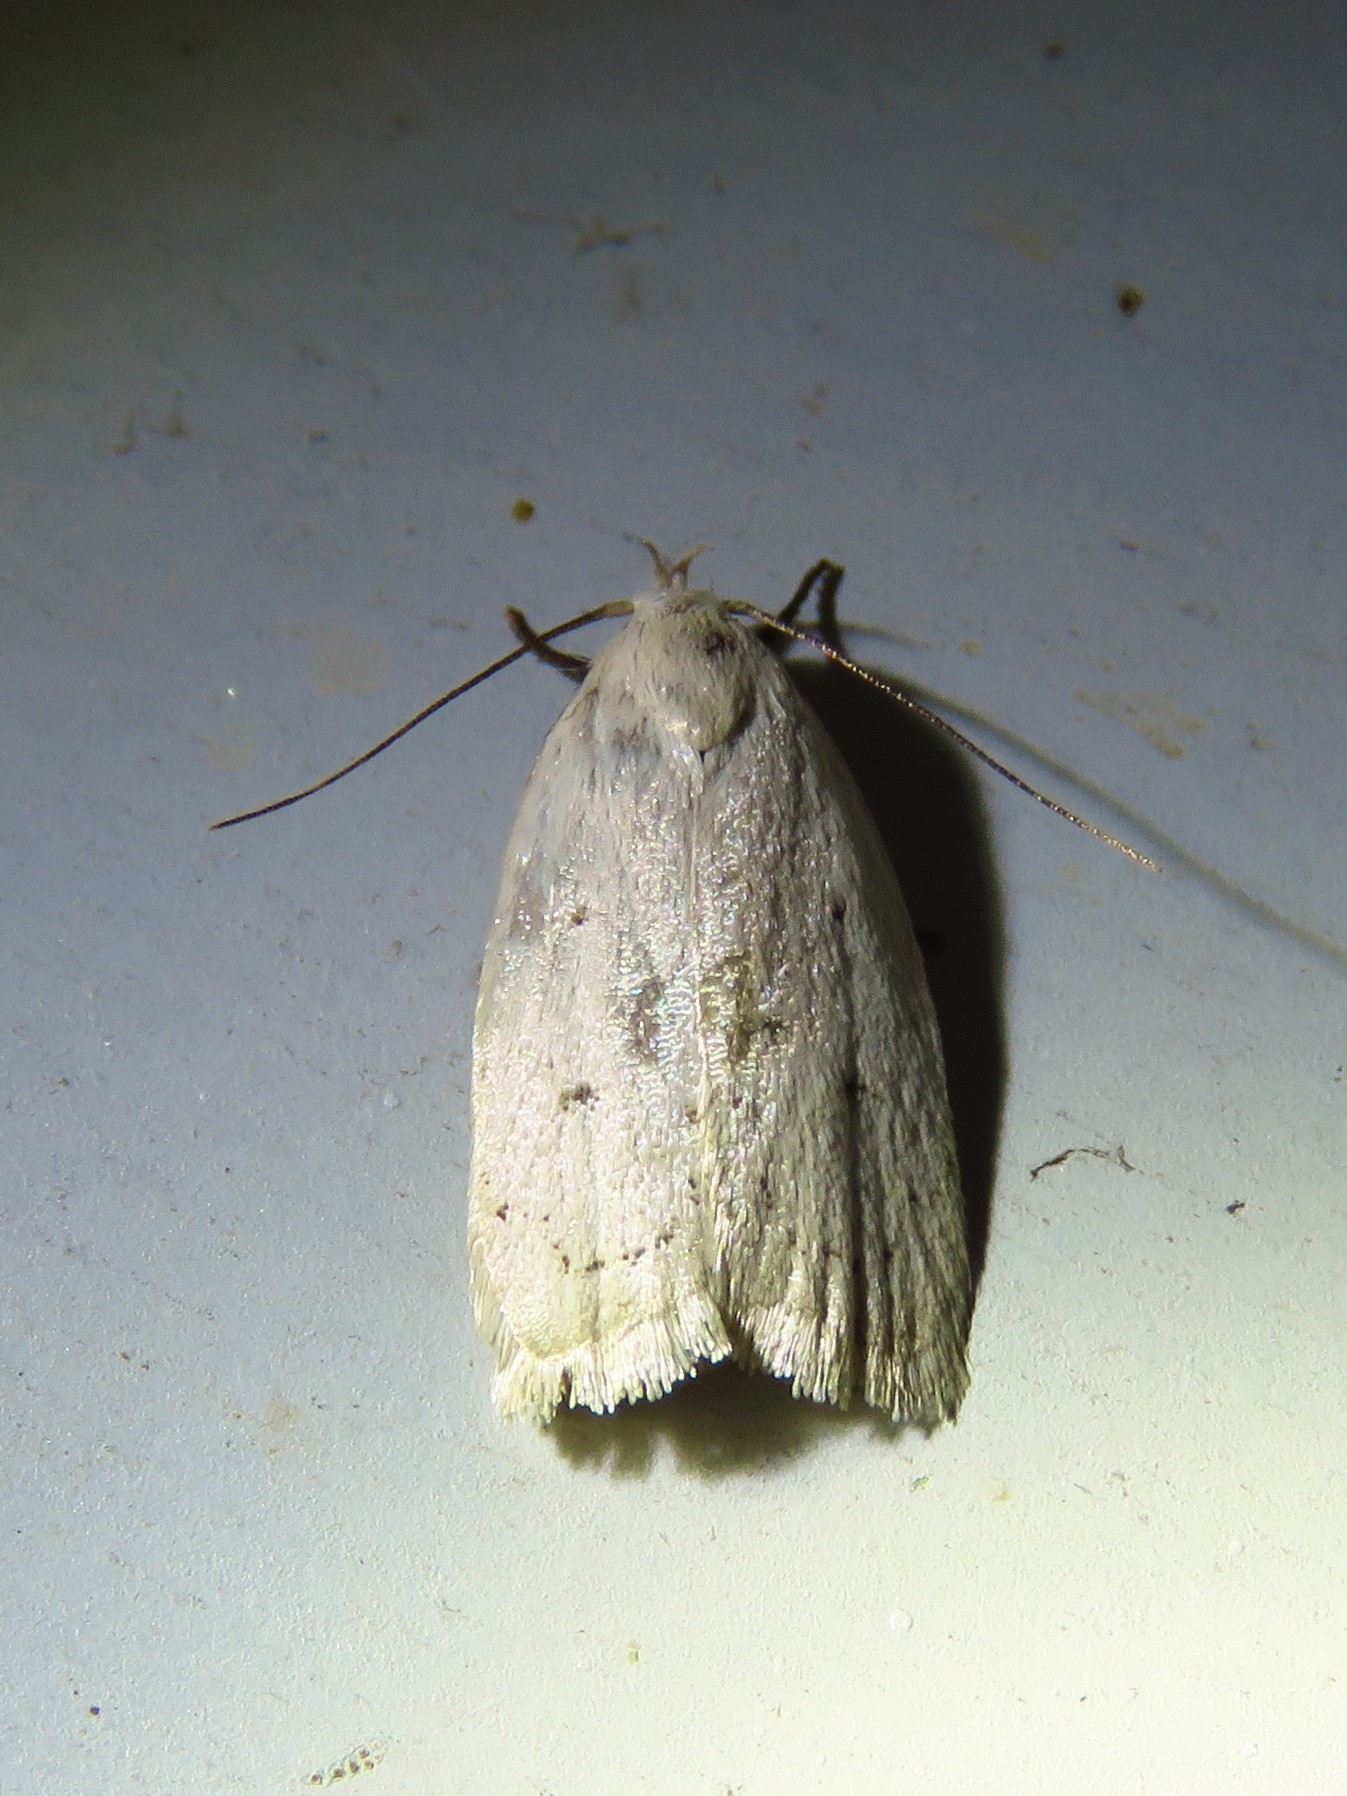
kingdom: Animalia
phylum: Arthropoda
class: Insecta
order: Lepidoptera
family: Oecophoridae
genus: Inga
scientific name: Inga cretacea
